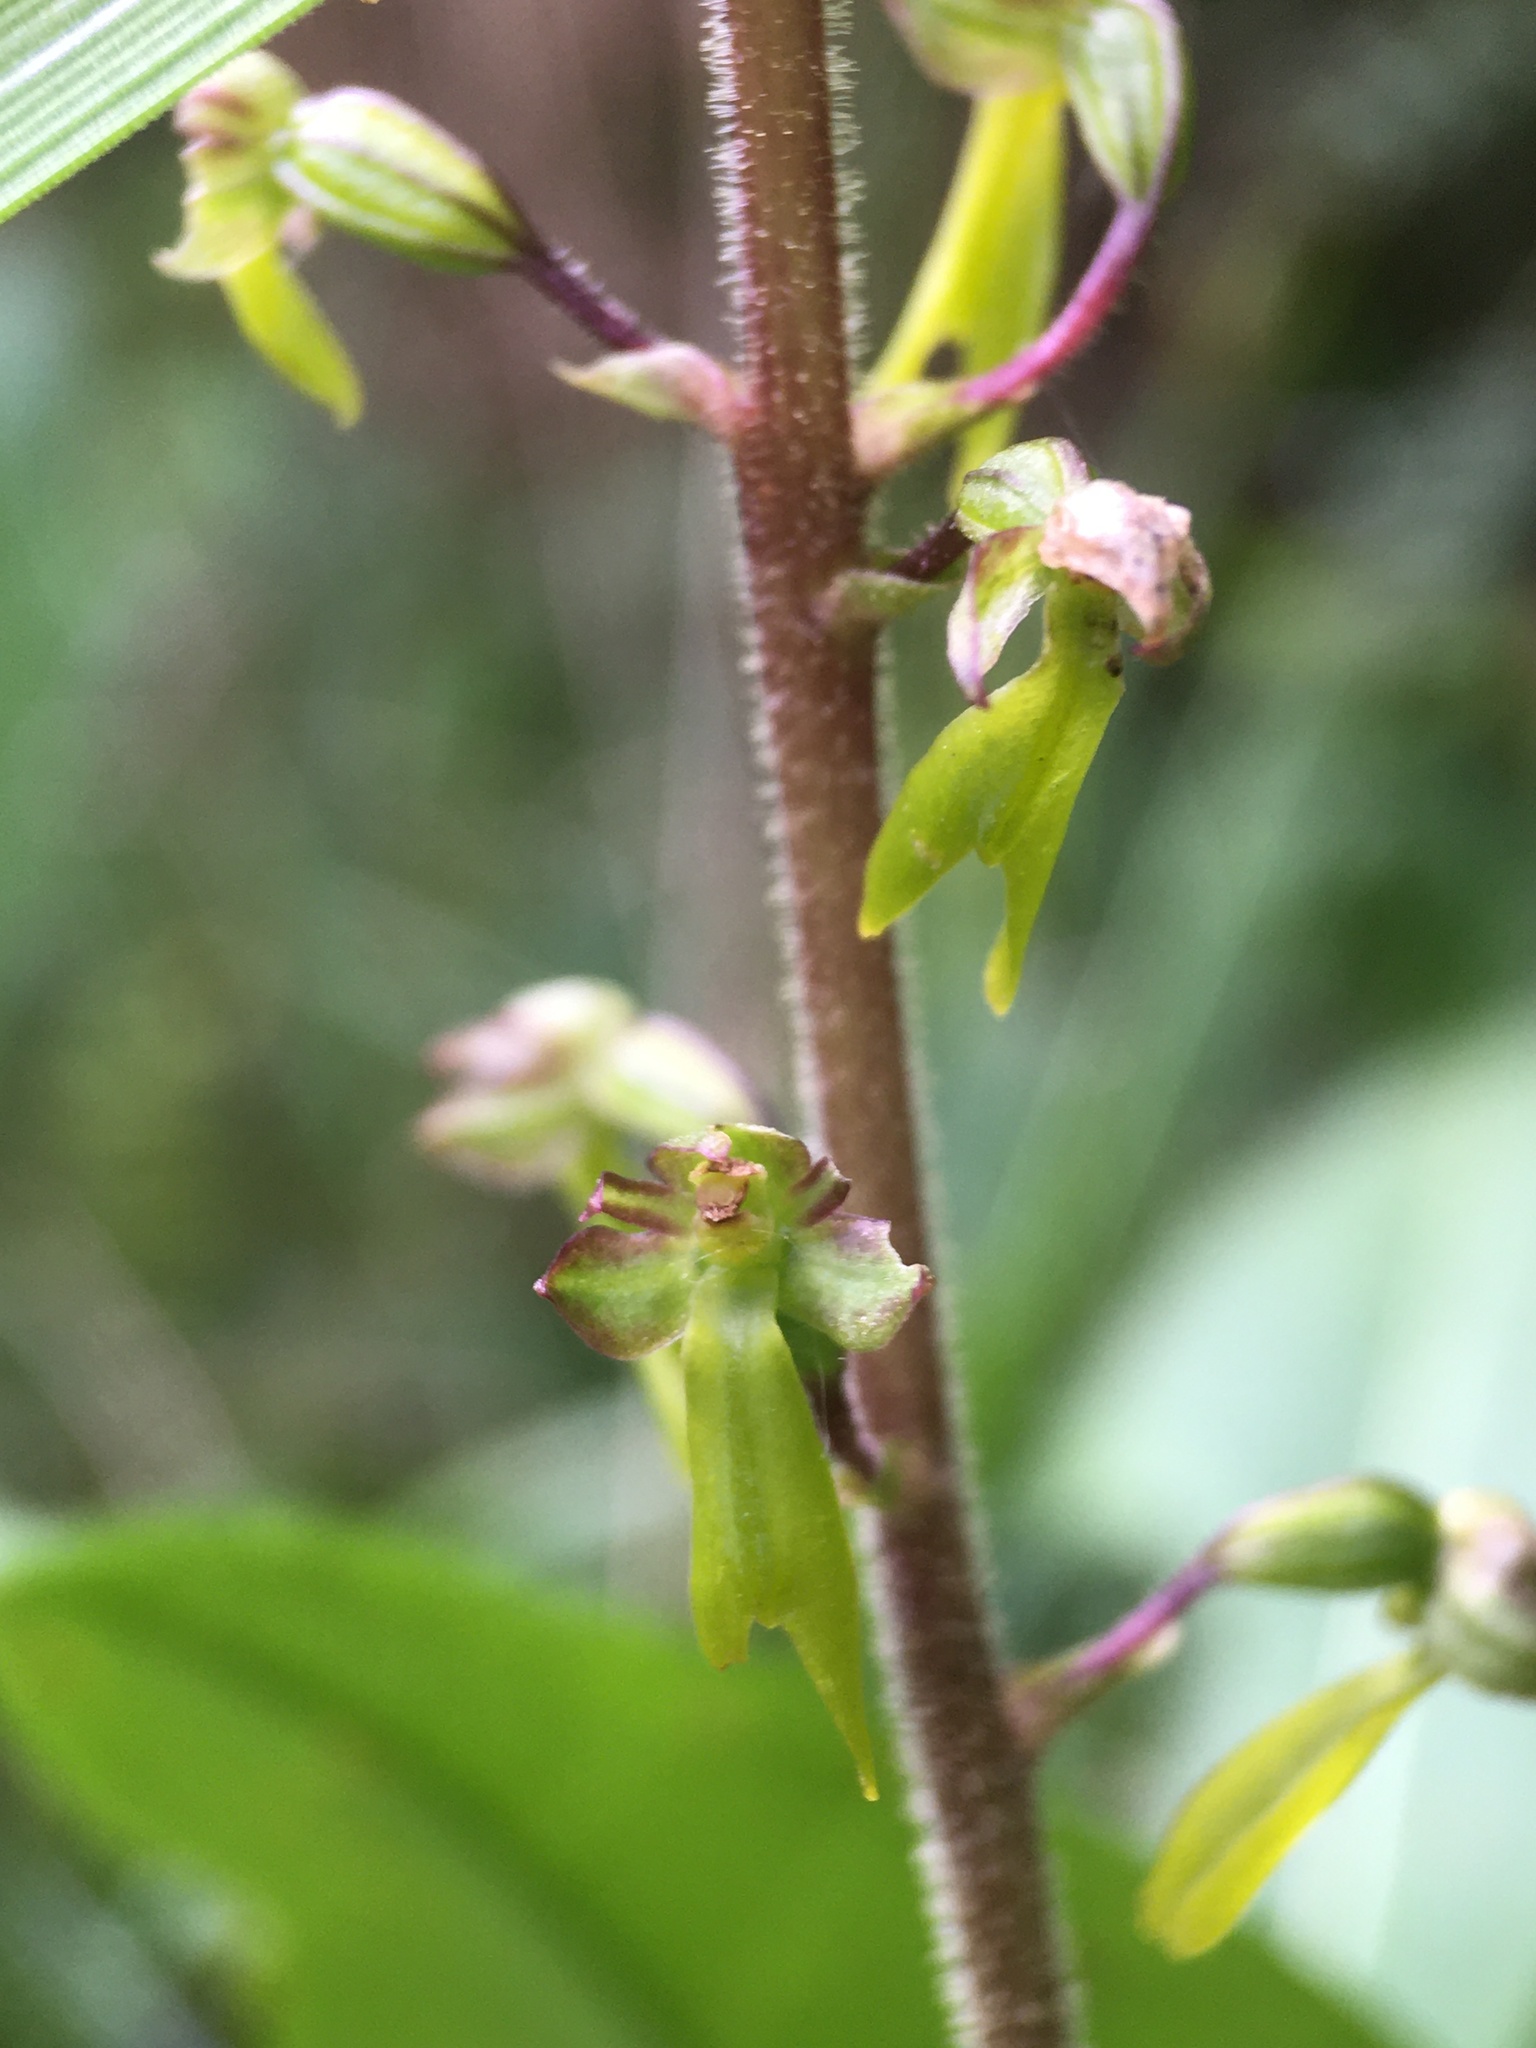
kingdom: Plantae
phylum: Tracheophyta
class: Liliopsida
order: Asparagales
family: Orchidaceae
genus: Neottia
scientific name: Neottia ovata
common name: Common twayblade
